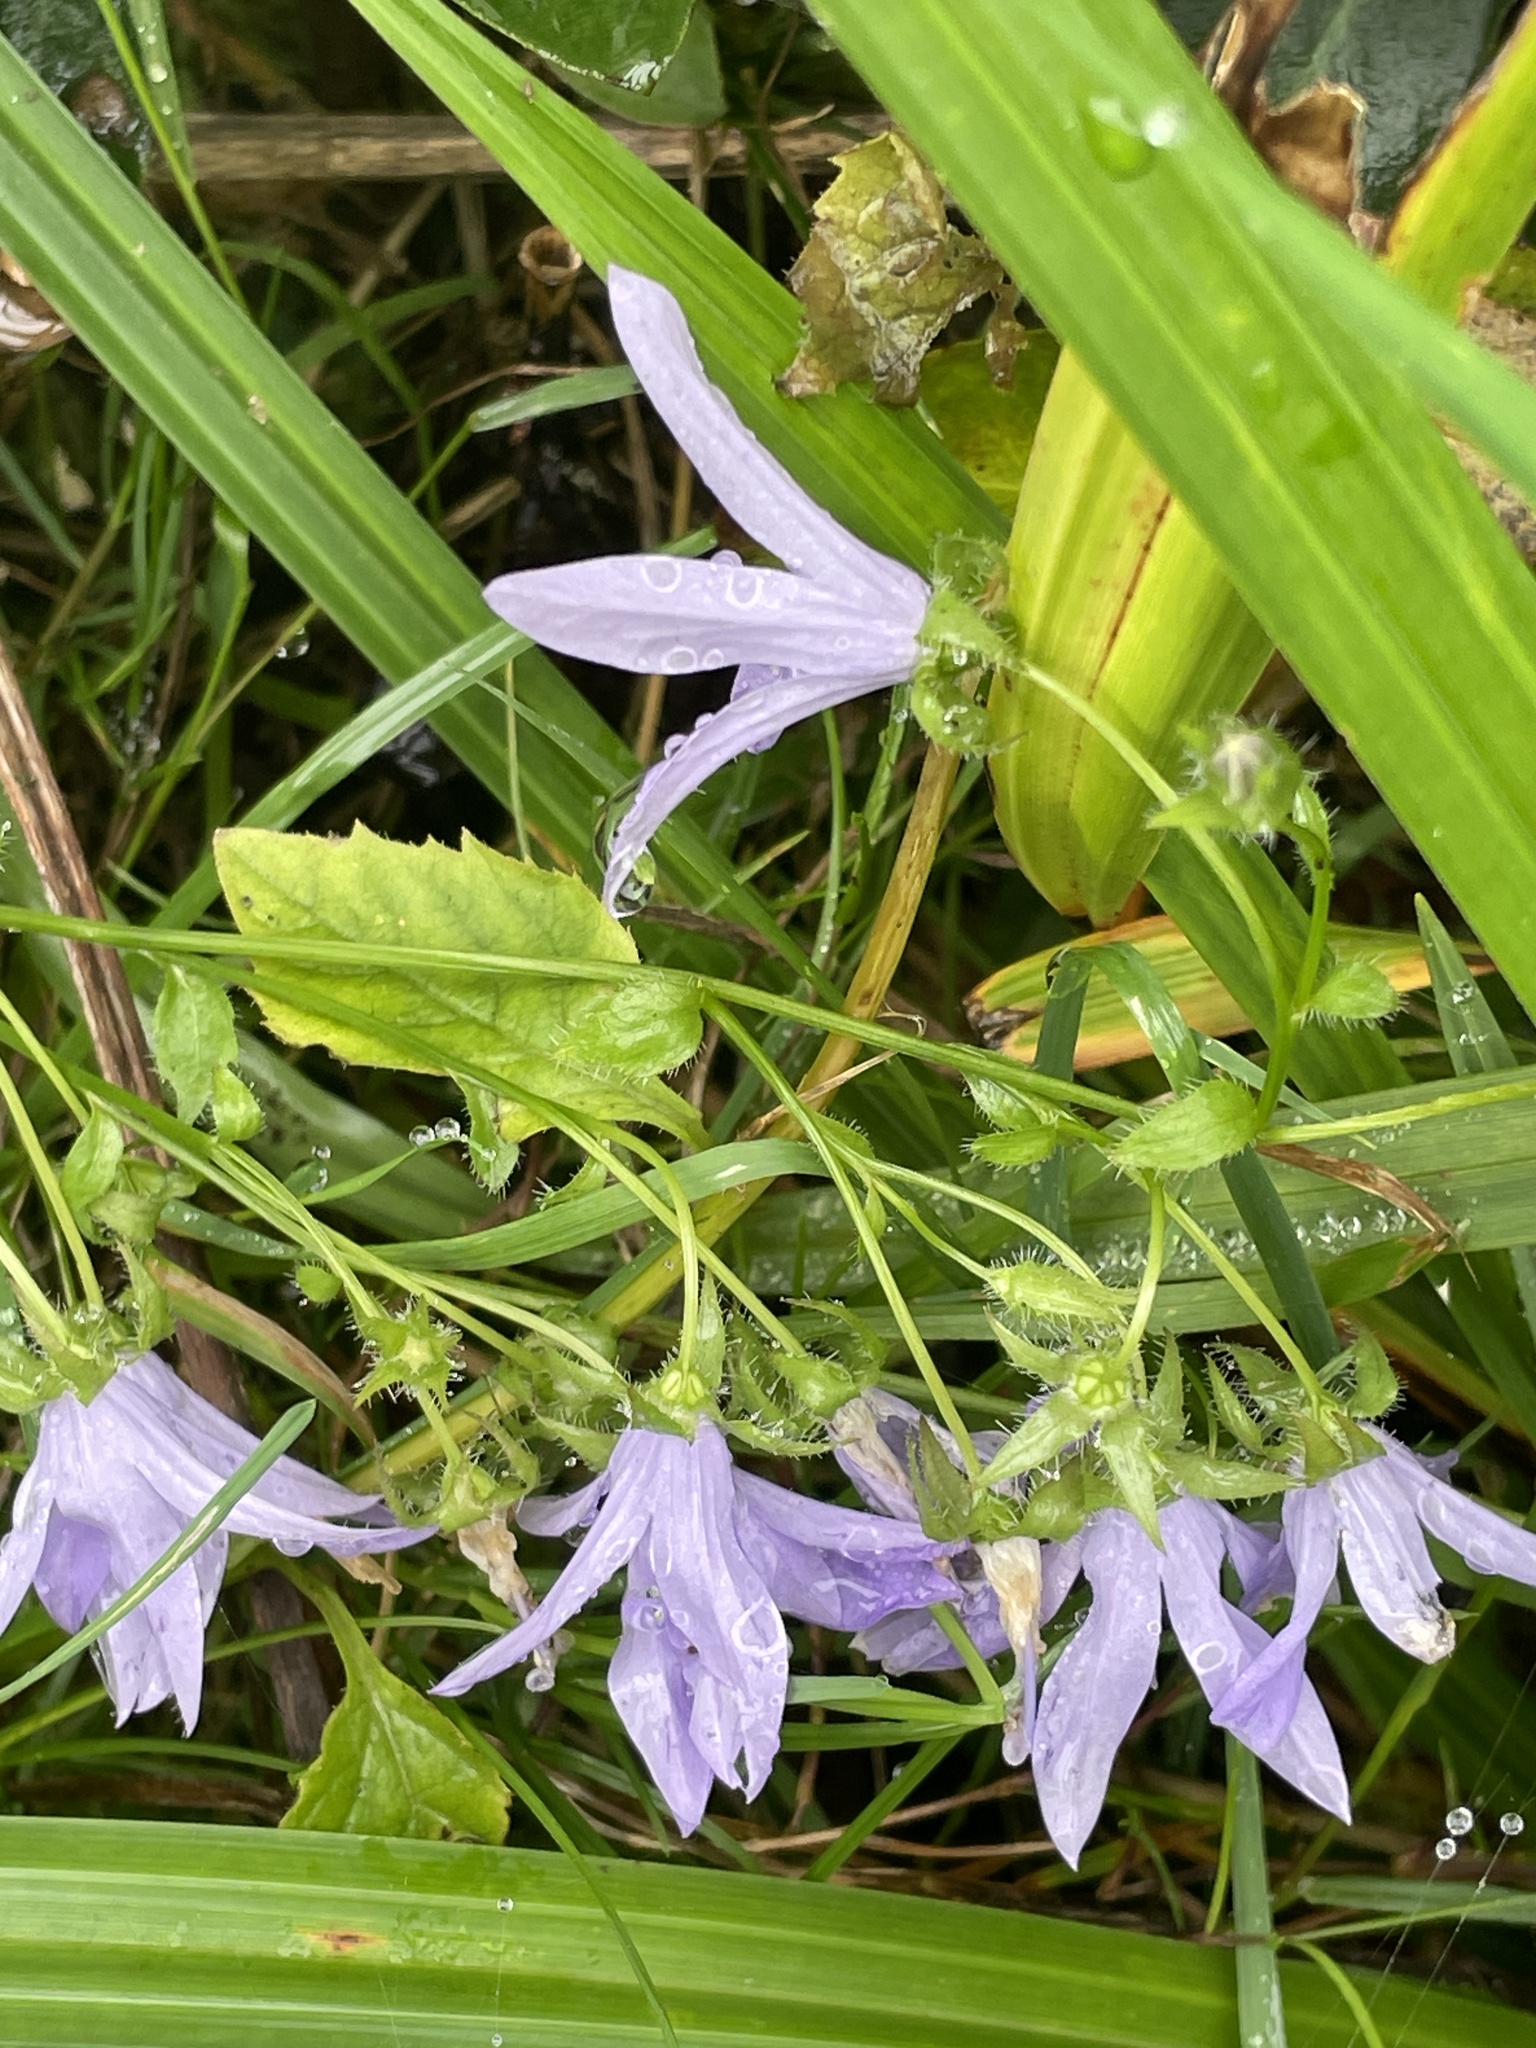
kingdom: Plantae
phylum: Tracheophyta
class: Magnoliopsida
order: Asterales
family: Campanulaceae
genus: Campanula
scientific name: Campanula poscharskyana
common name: Trailing bellflower
